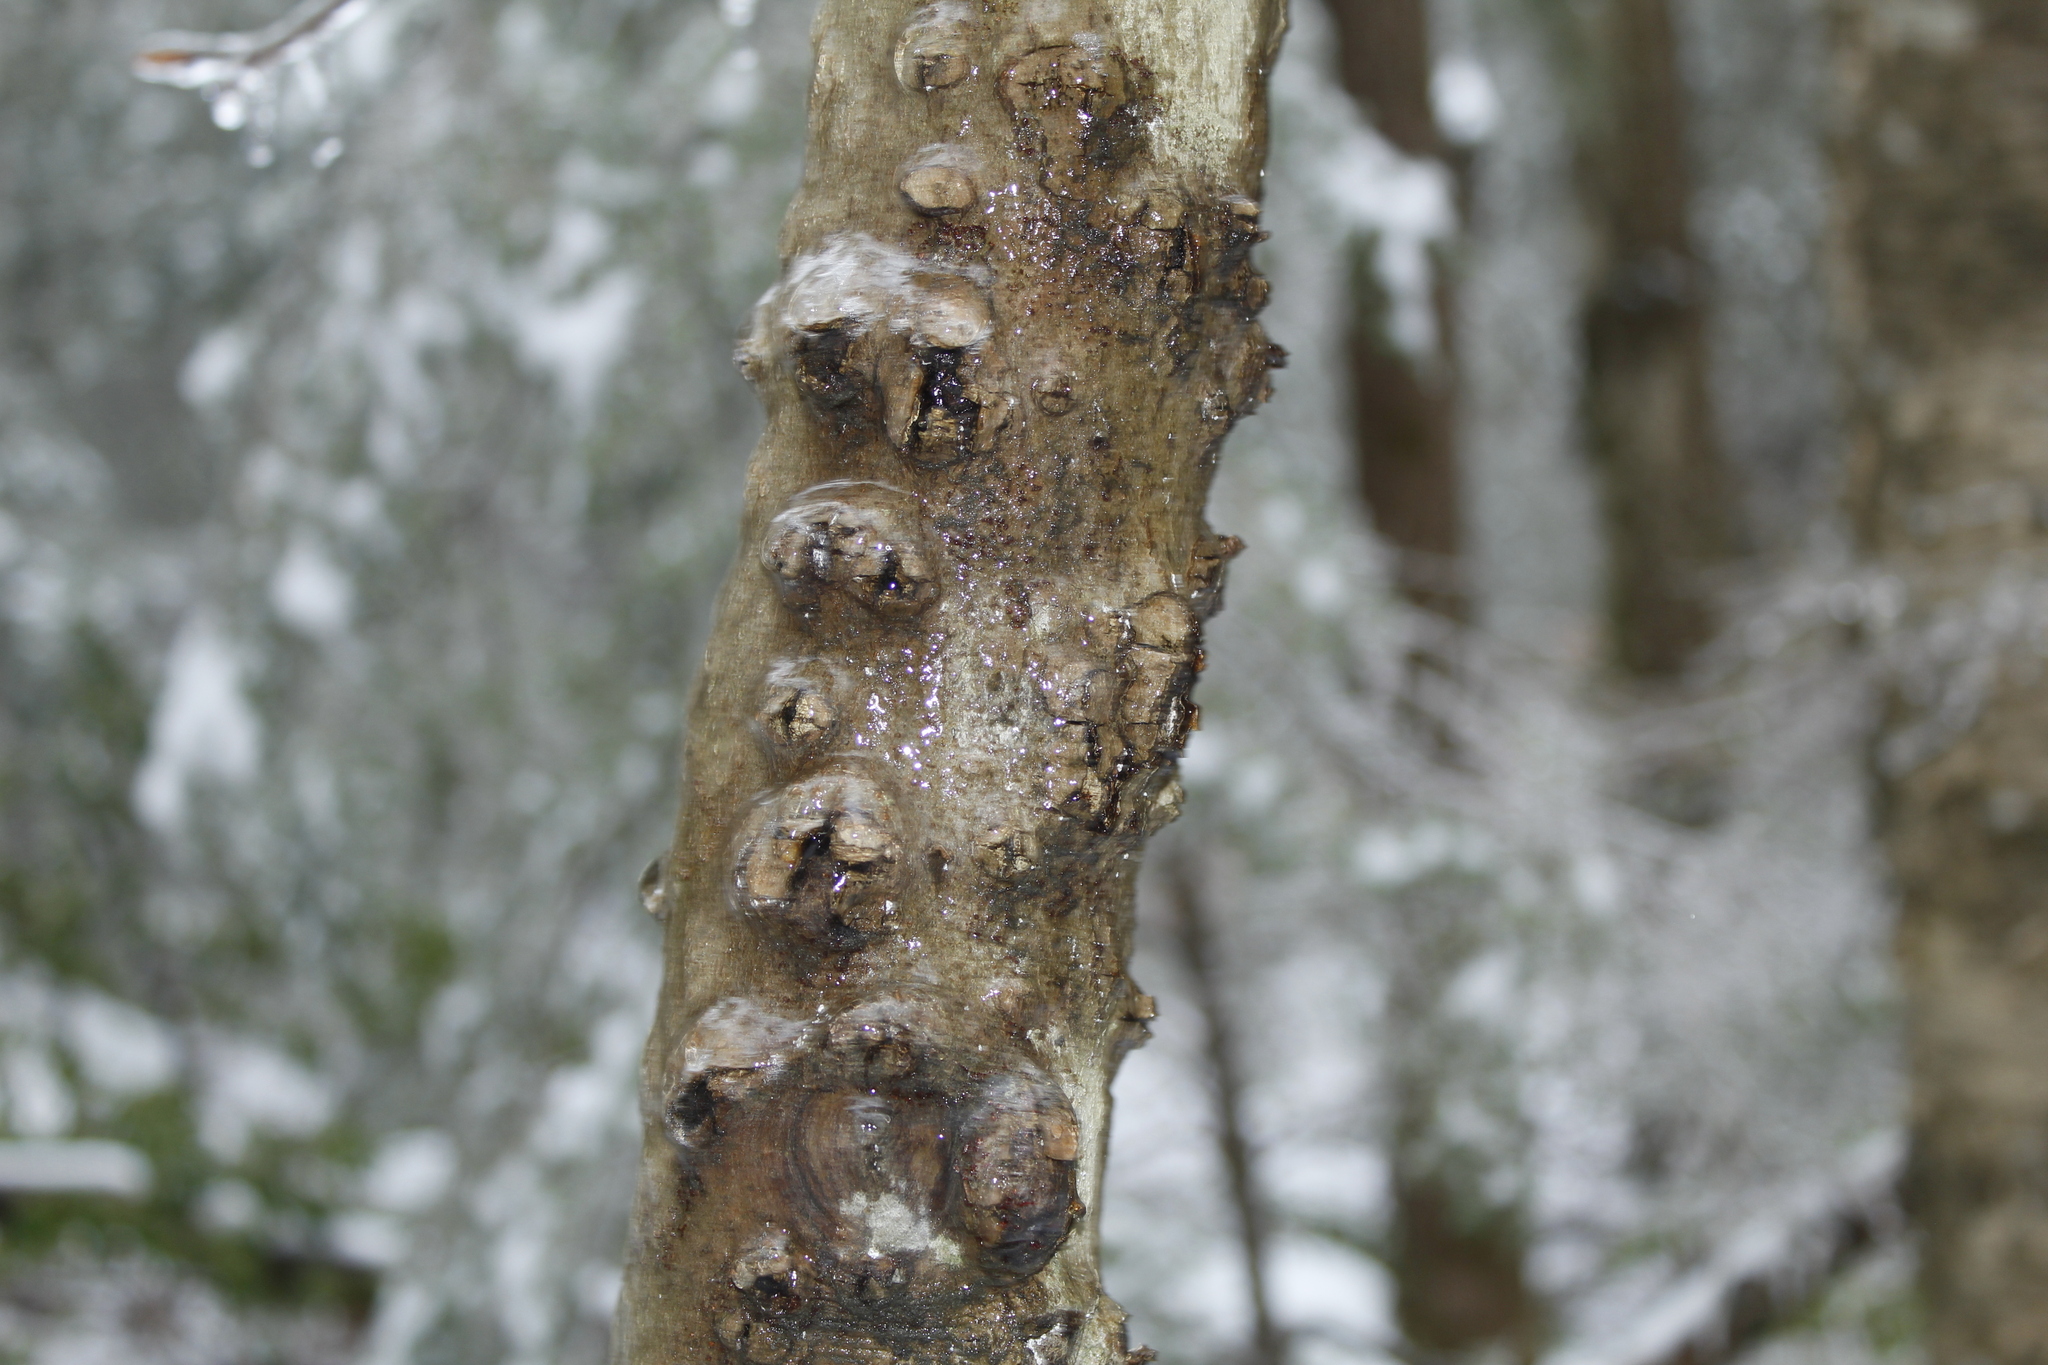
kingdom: Plantae
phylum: Tracheophyta
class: Magnoliopsida
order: Fagales
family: Fagaceae
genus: Fagus
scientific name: Fagus grandifolia
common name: American beech
